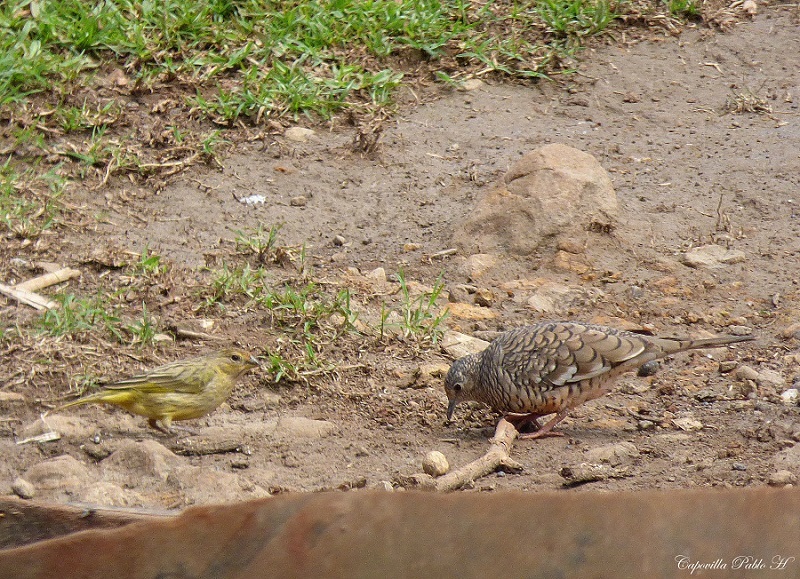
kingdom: Animalia
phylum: Chordata
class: Aves
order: Columbiformes
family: Columbidae
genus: Columbina
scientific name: Columbina squammata
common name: Scaled dove
